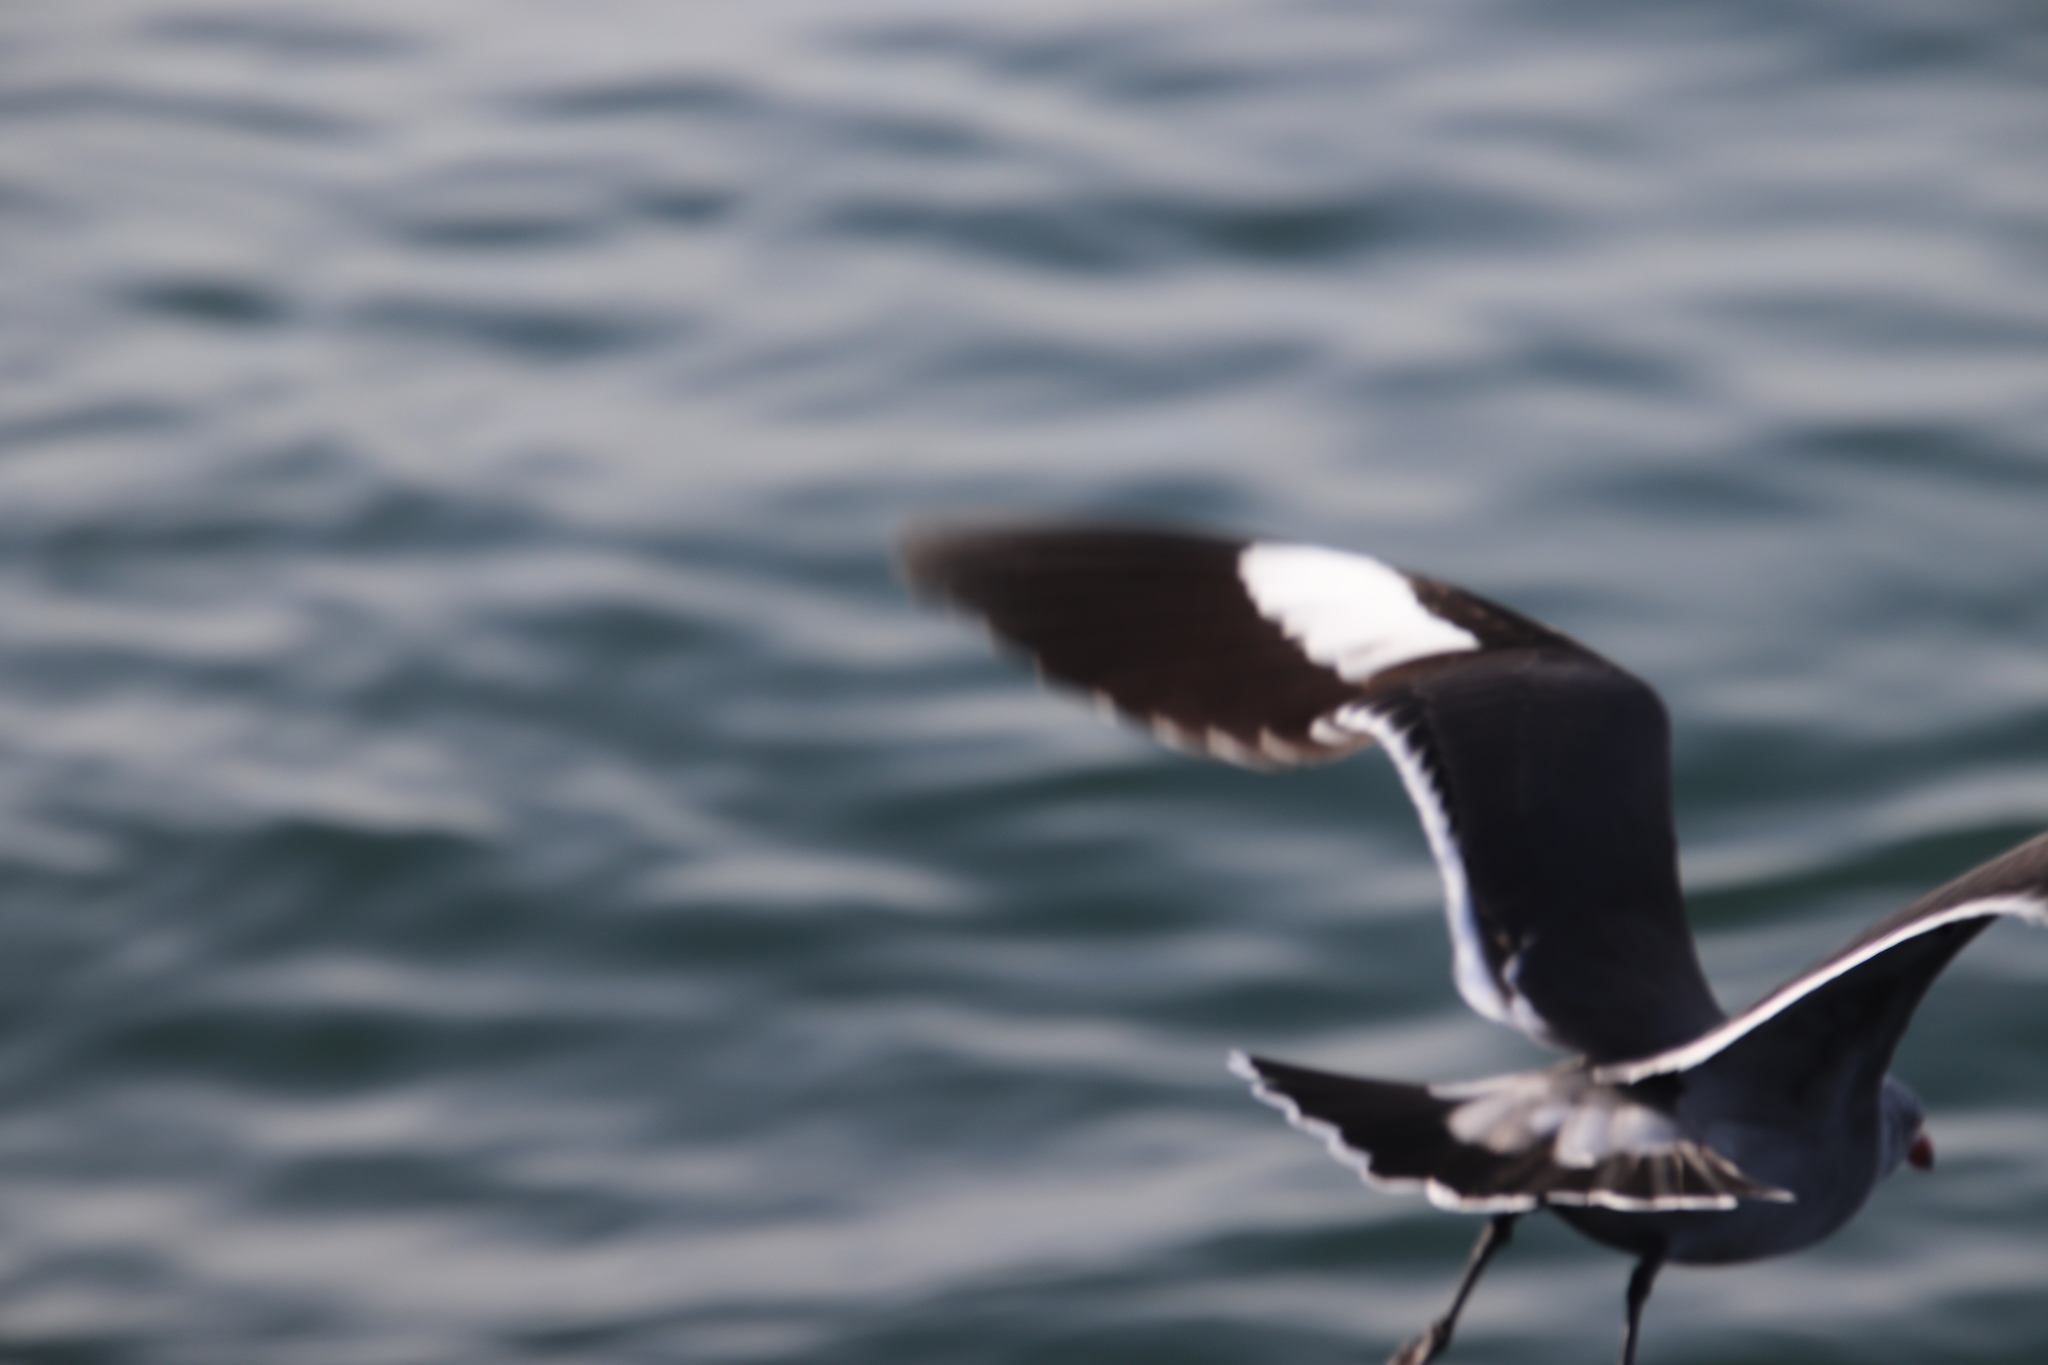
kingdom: Animalia
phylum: Chordata
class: Aves
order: Charadriiformes
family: Laridae
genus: Larus
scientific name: Larus heermanni
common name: Heermann's gull
